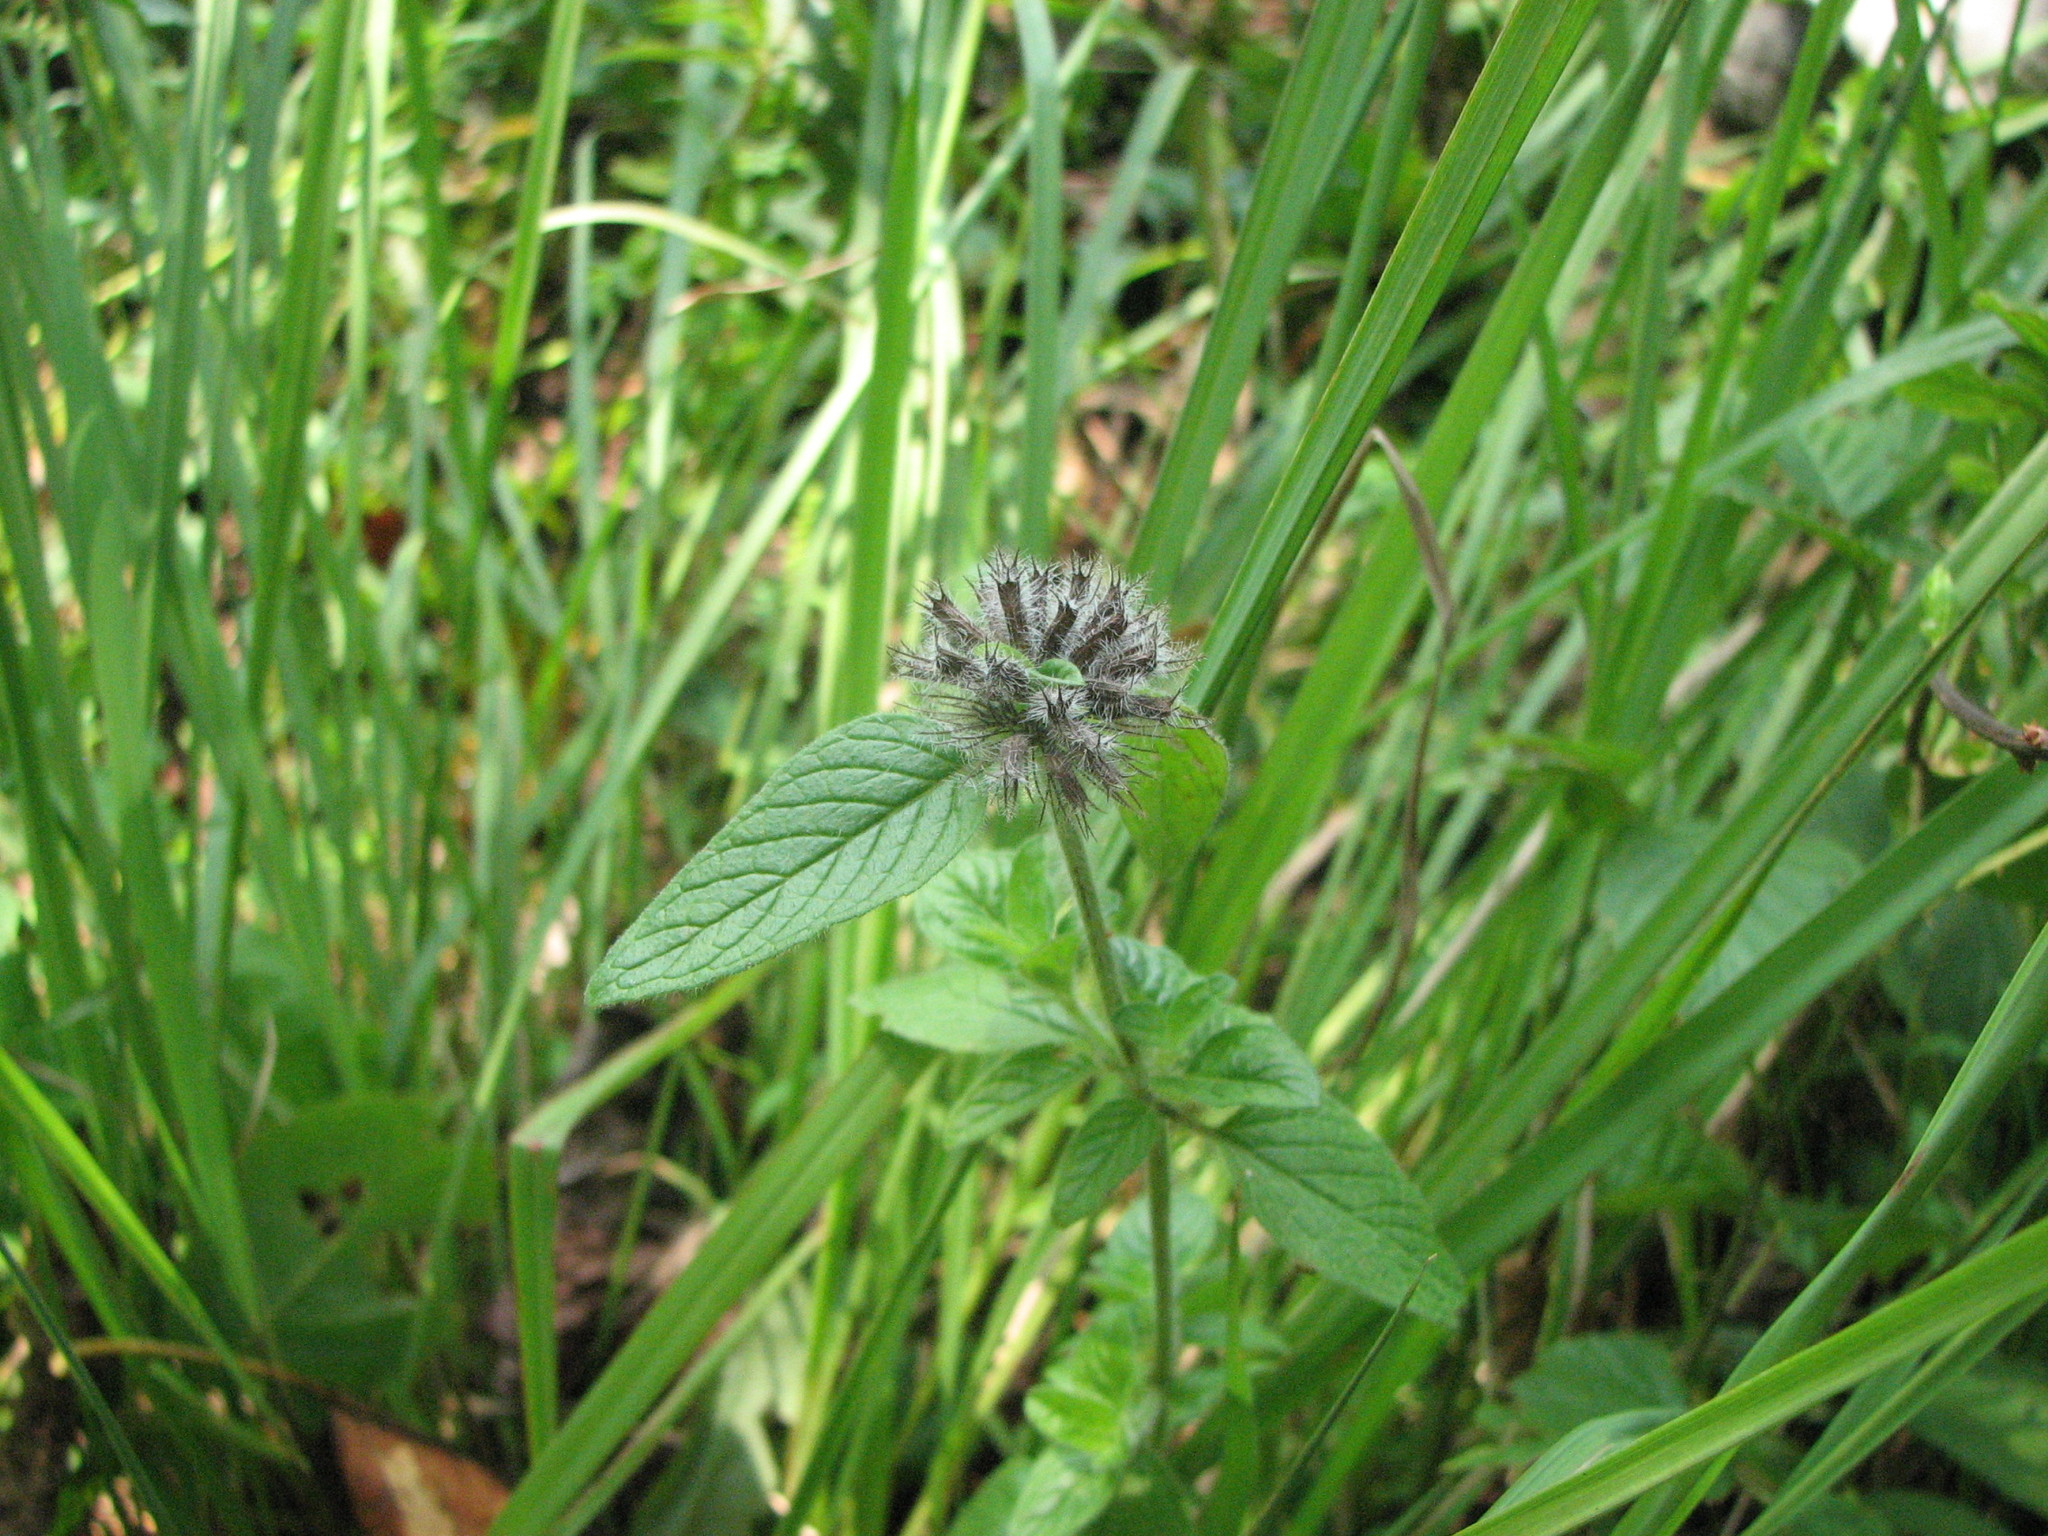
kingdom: Plantae
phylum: Tracheophyta
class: Magnoliopsida
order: Lamiales
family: Lamiaceae
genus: Clinopodium
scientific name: Clinopodium vulgare
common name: Wild basil
